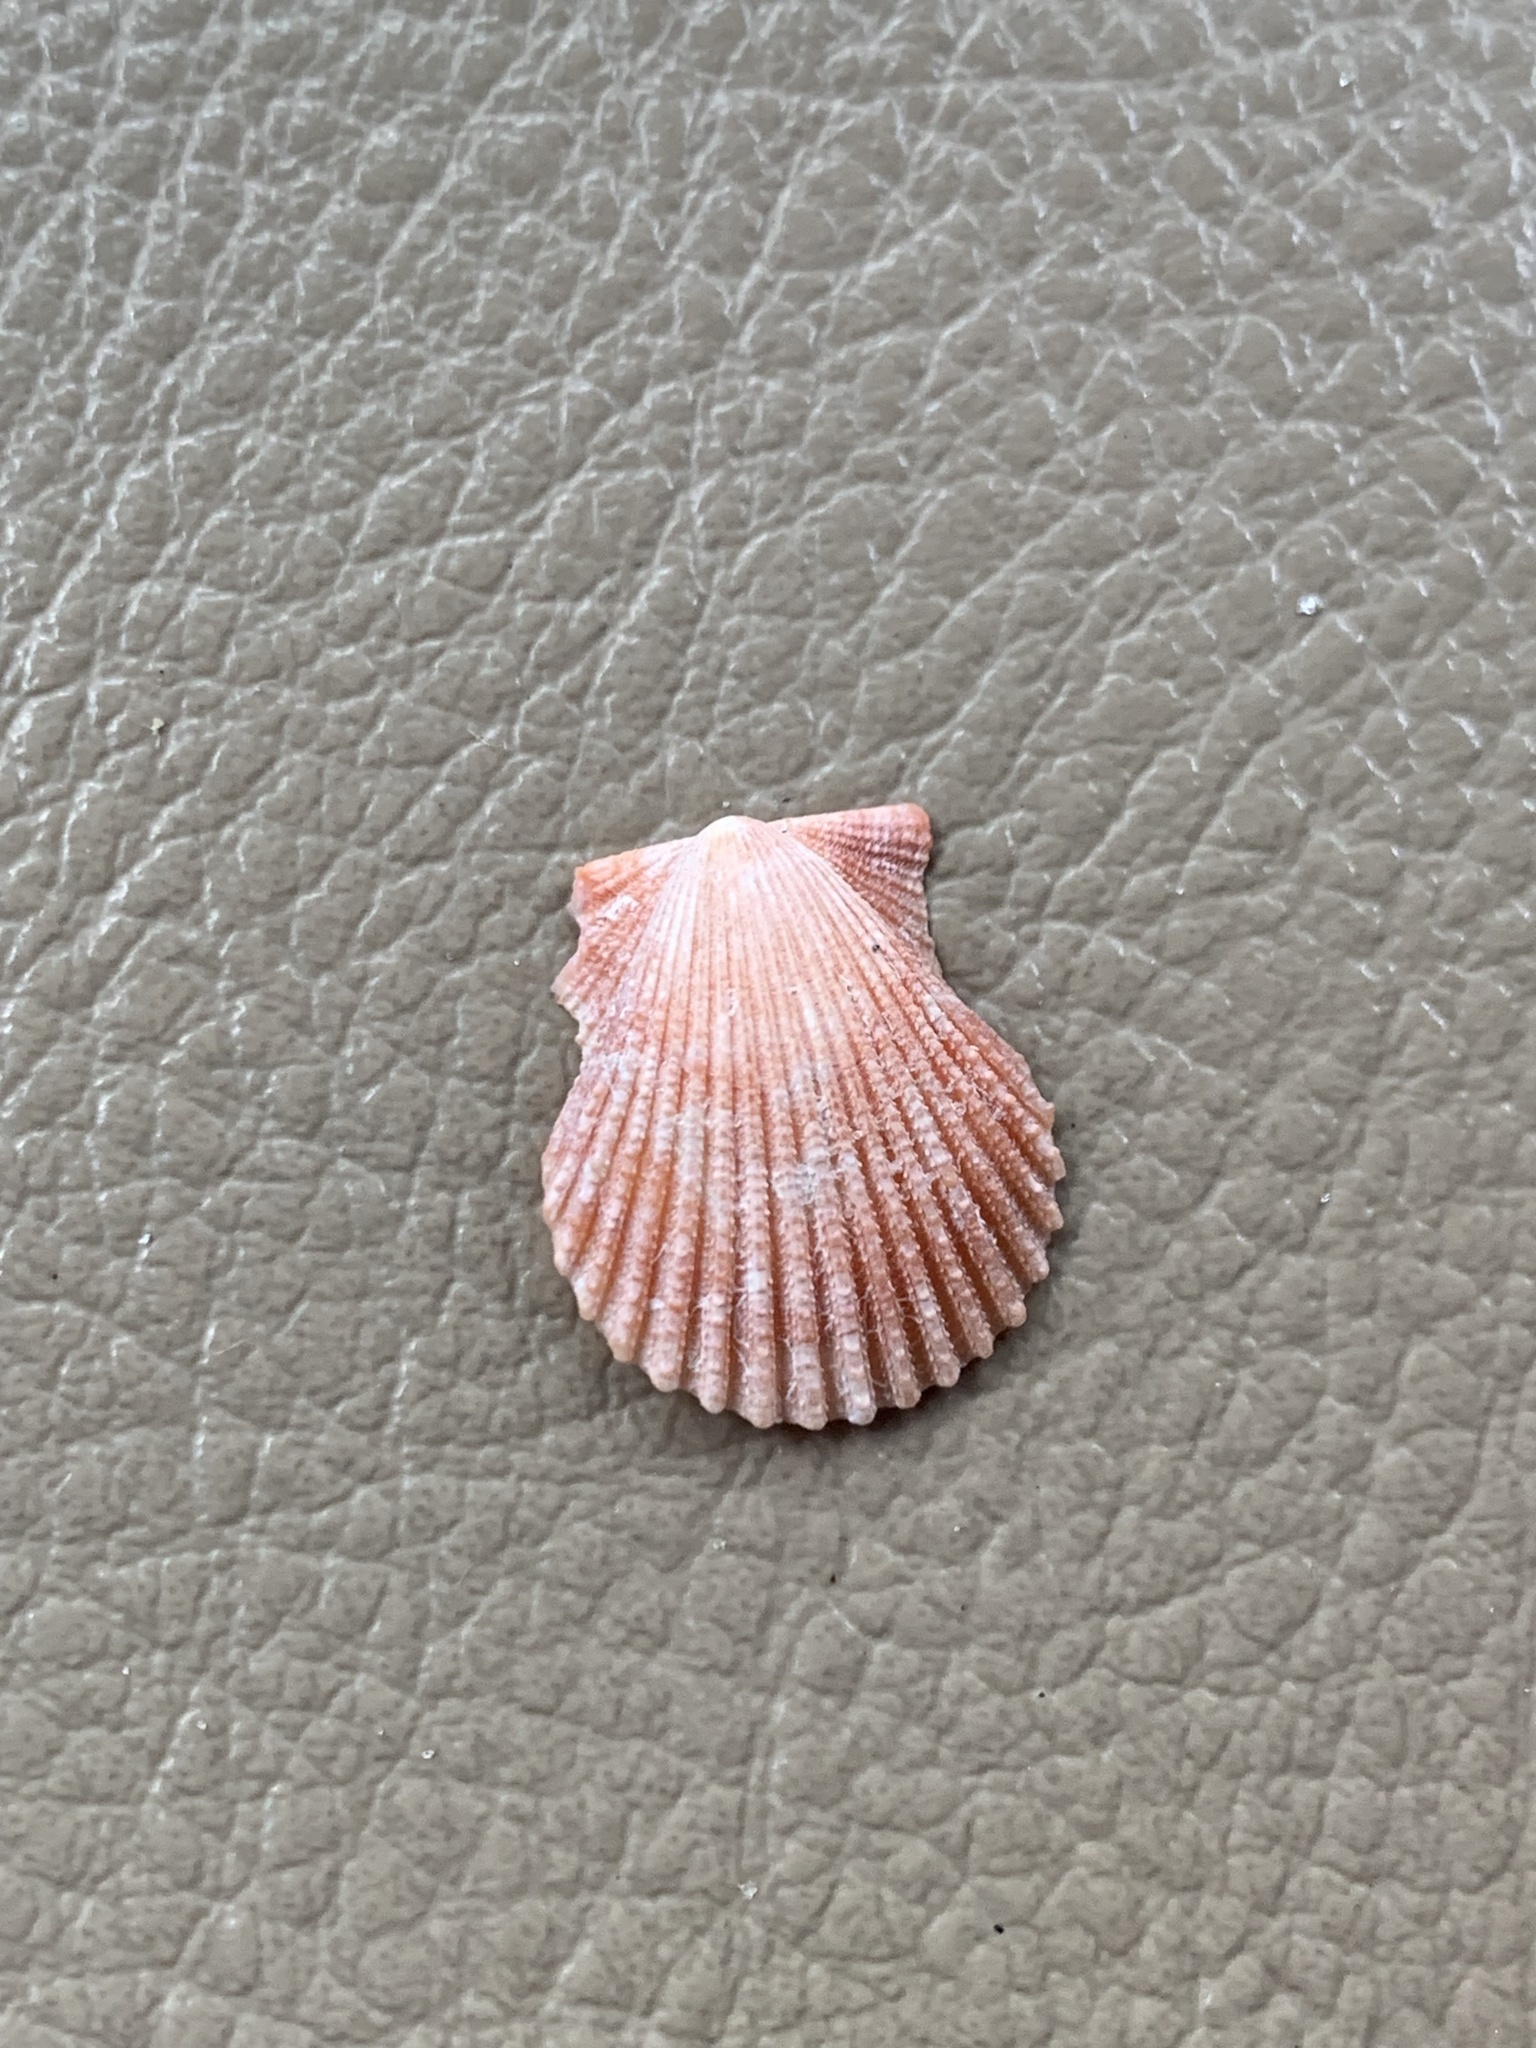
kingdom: Animalia
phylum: Mollusca
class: Bivalvia
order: Pectinida
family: Pectinidae
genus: Lindapecten
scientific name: Lindapecten muscosus
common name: Rough scallop
